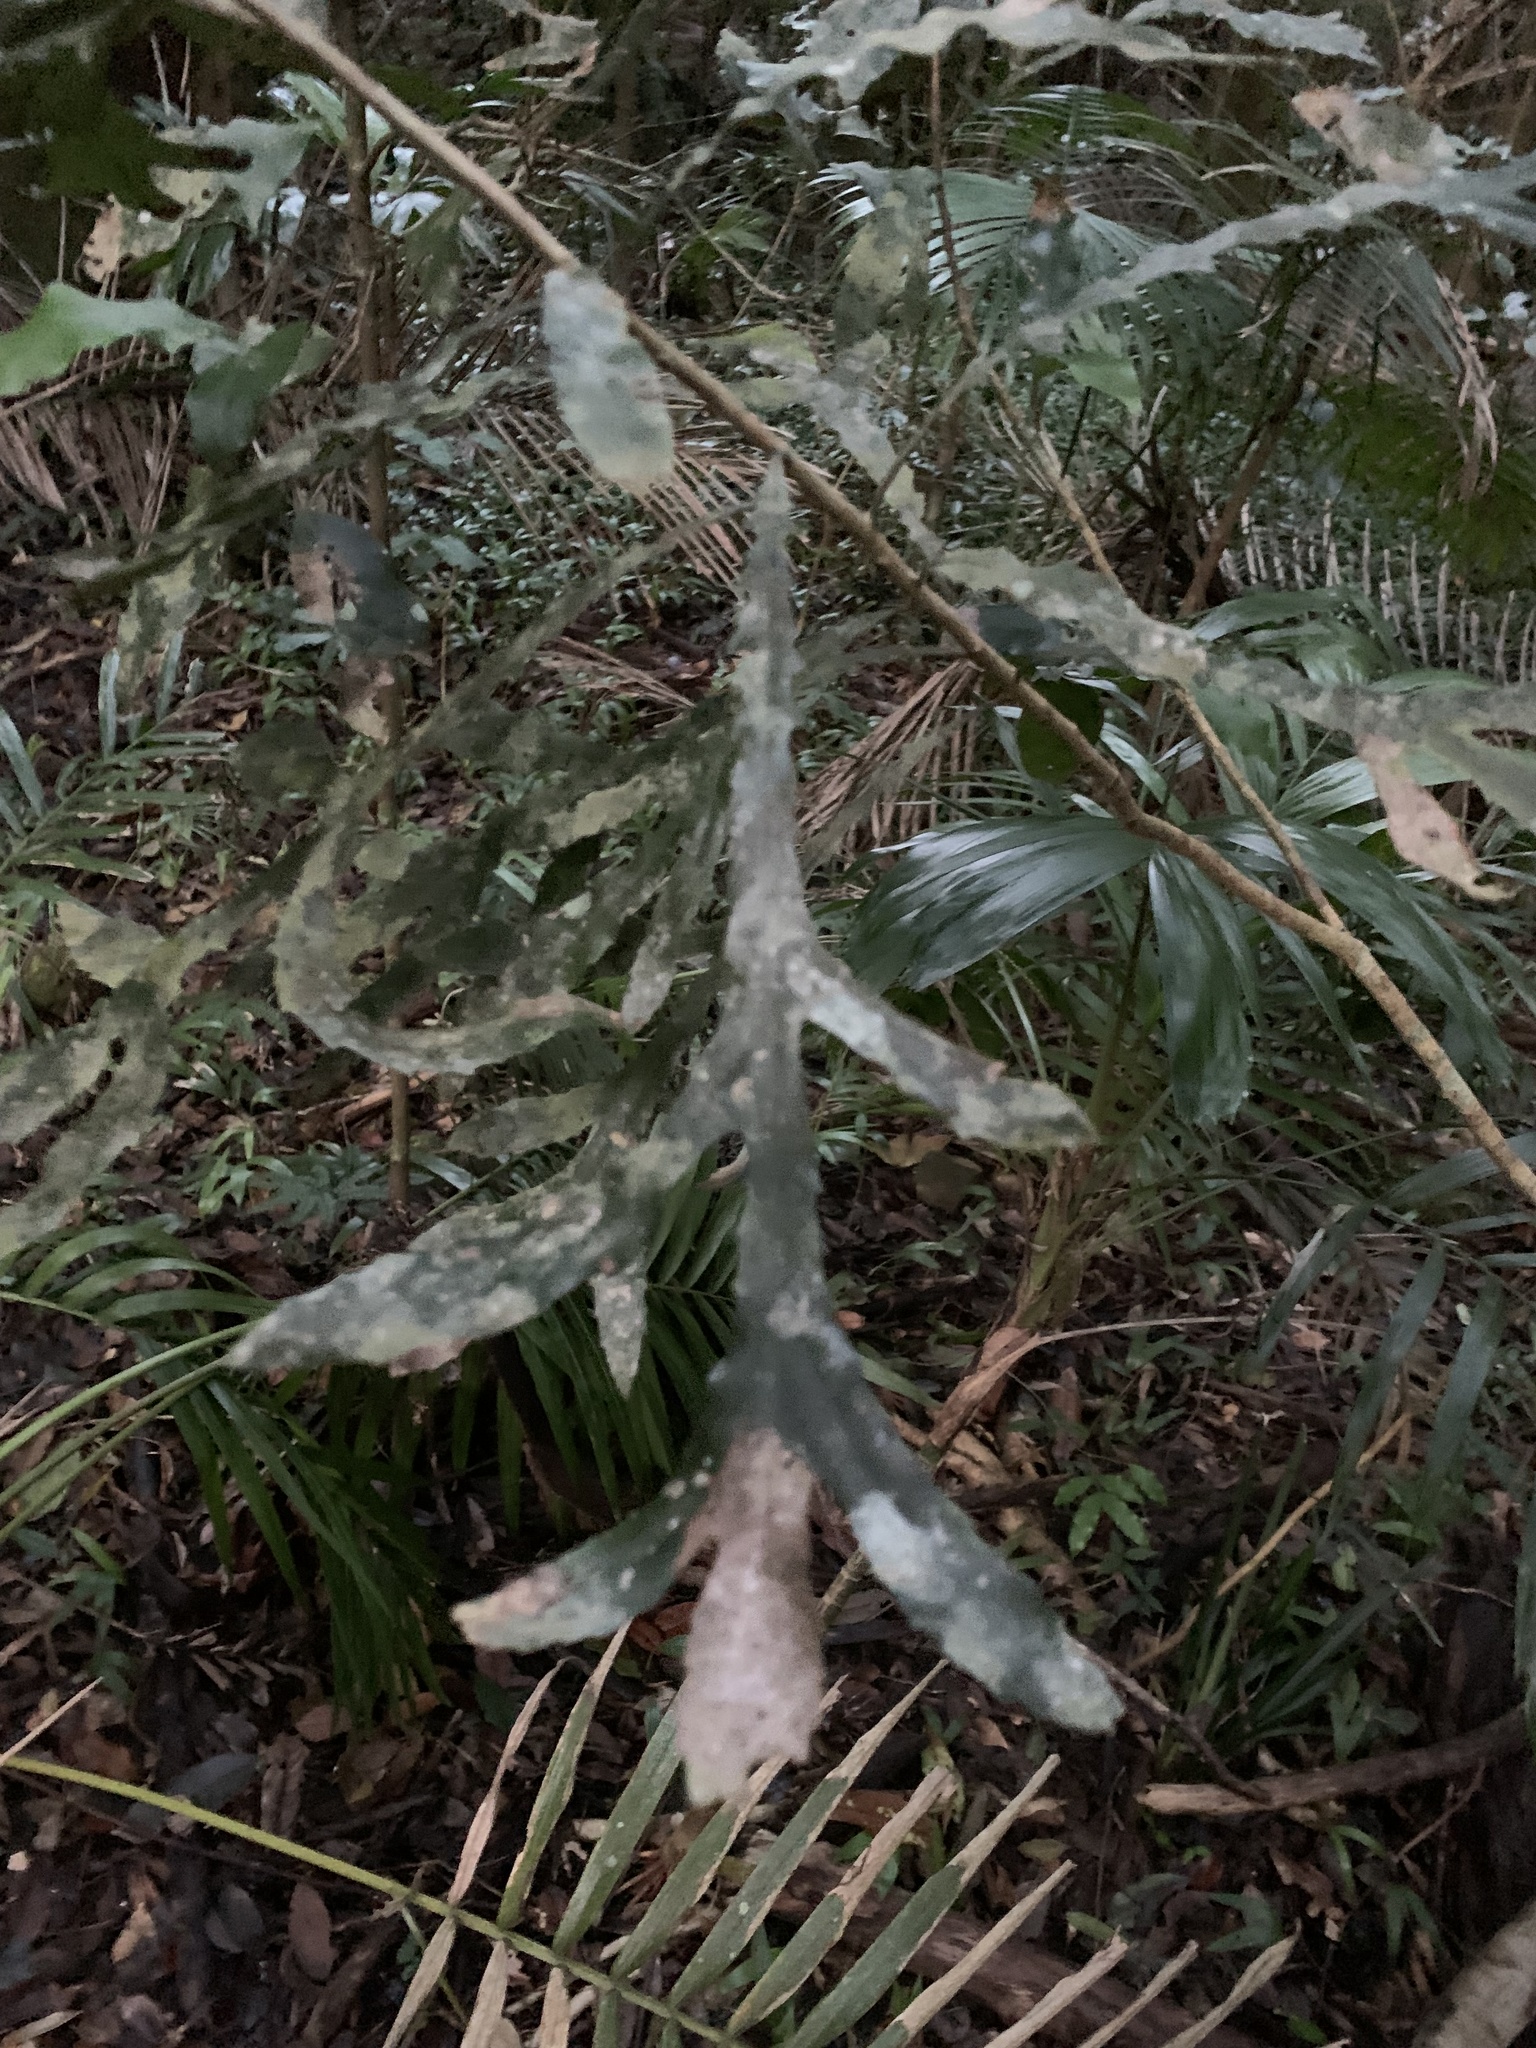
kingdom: Plantae
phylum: Tracheophyta
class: Magnoliopsida
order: Proteales
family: Proteaceae
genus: Orites
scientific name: Orites excelsus
